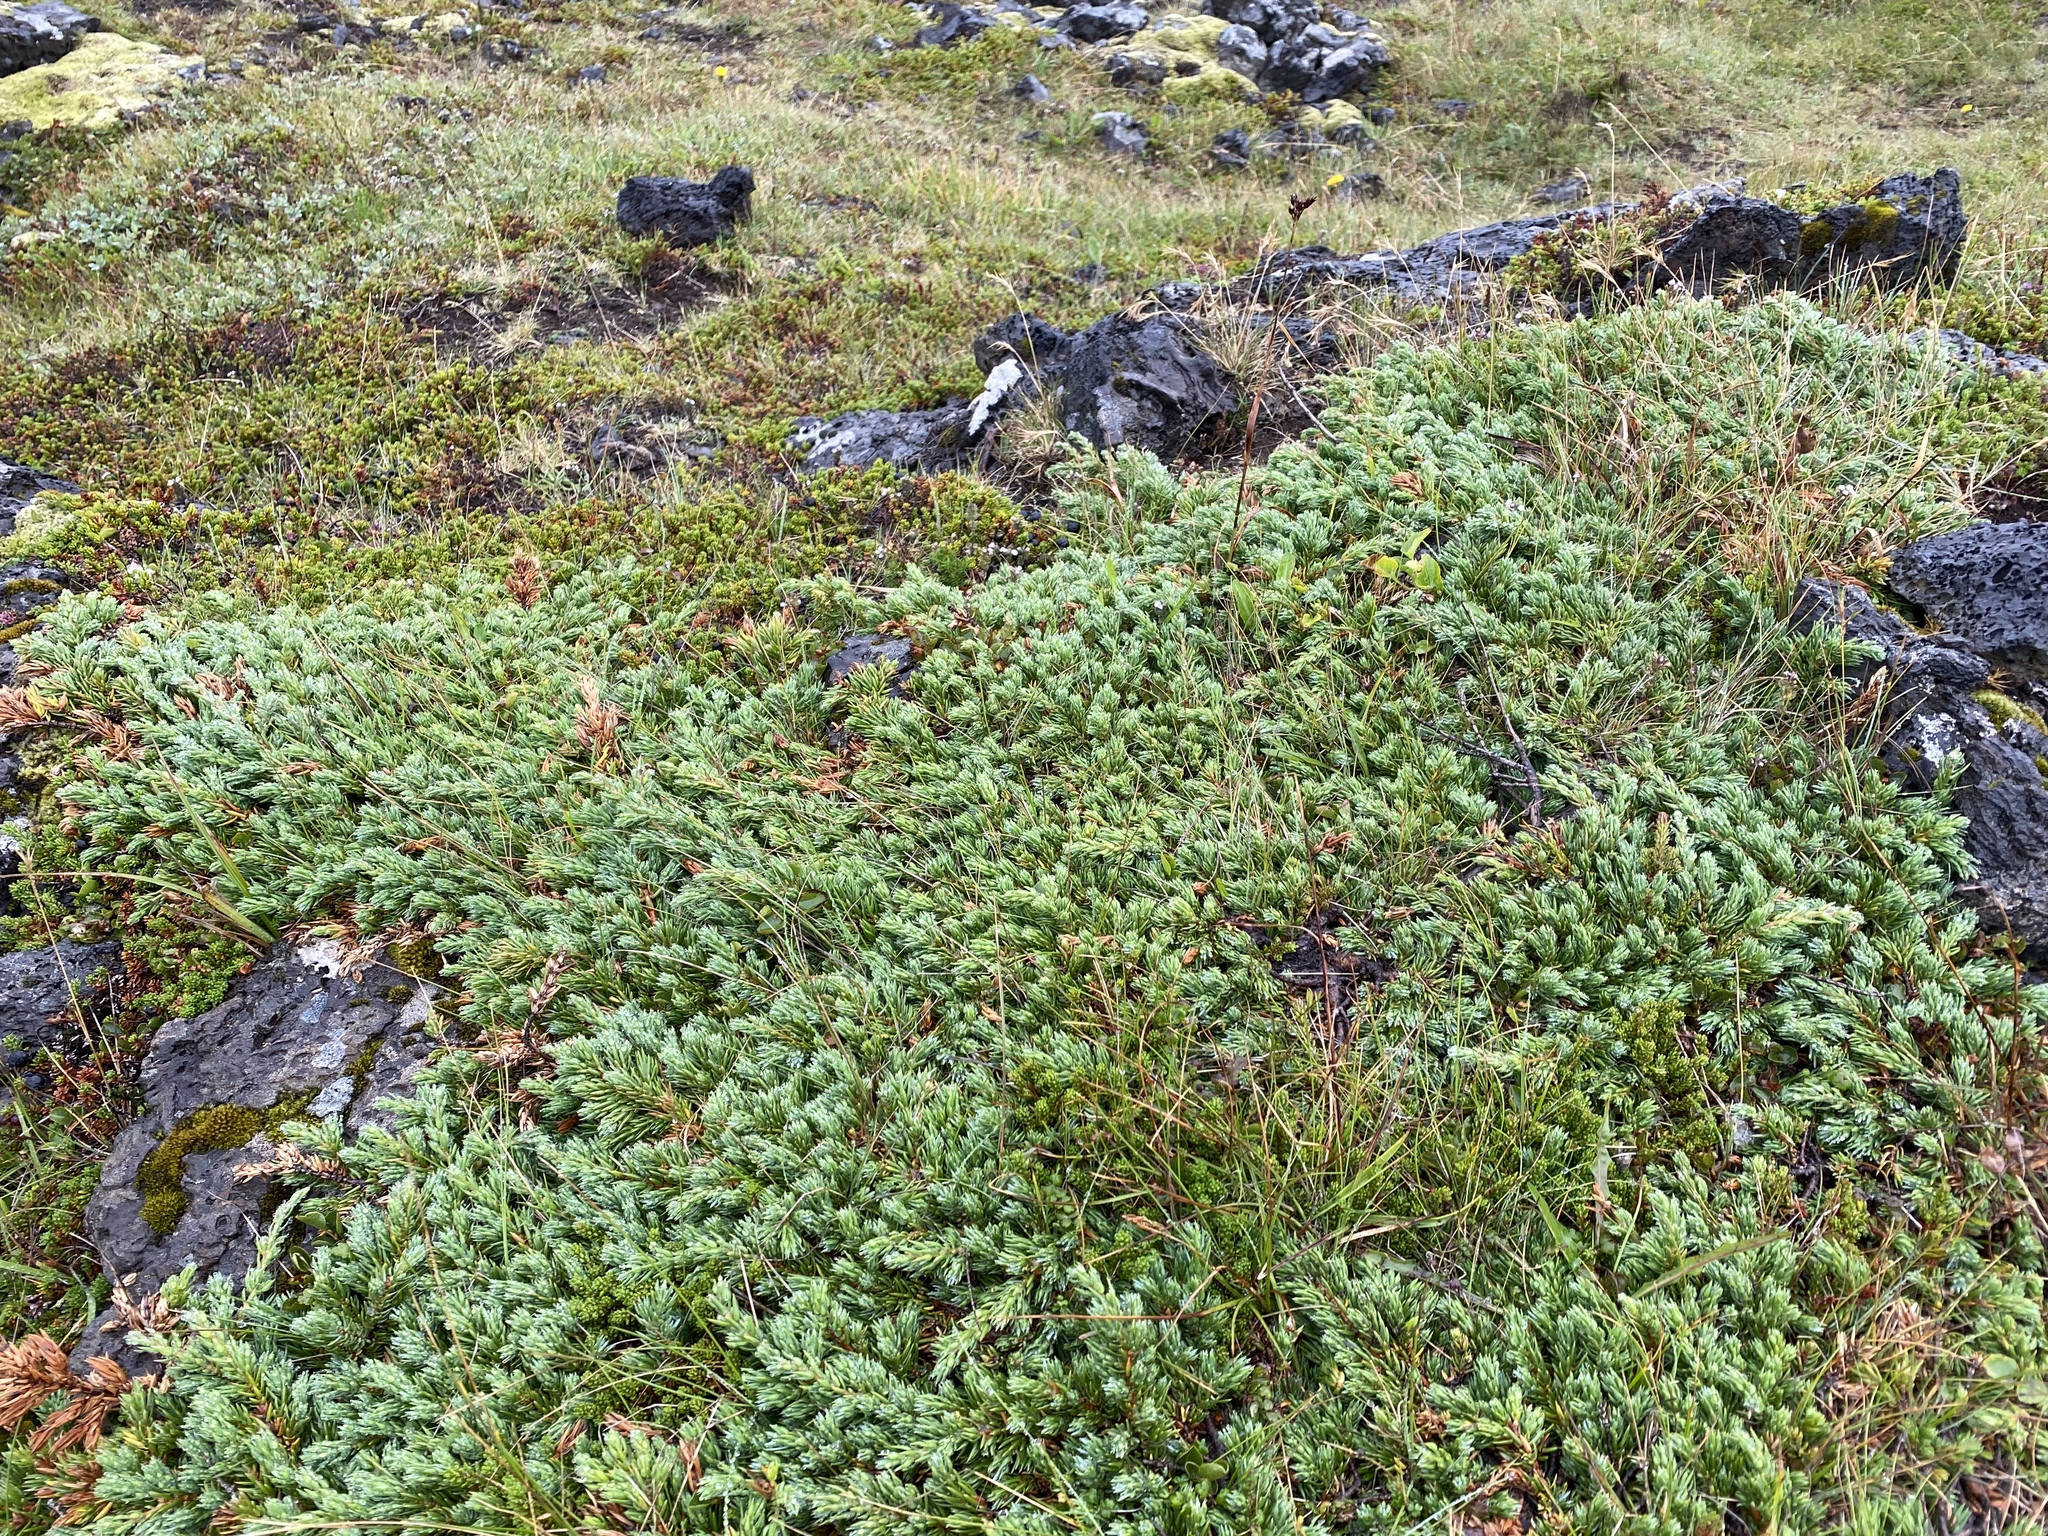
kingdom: Plantae
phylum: Tracheophyta
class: Pinopsida
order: Pinales
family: Cupressaceae
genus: Juniperus
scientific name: Juniperus communis
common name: Common juniper
